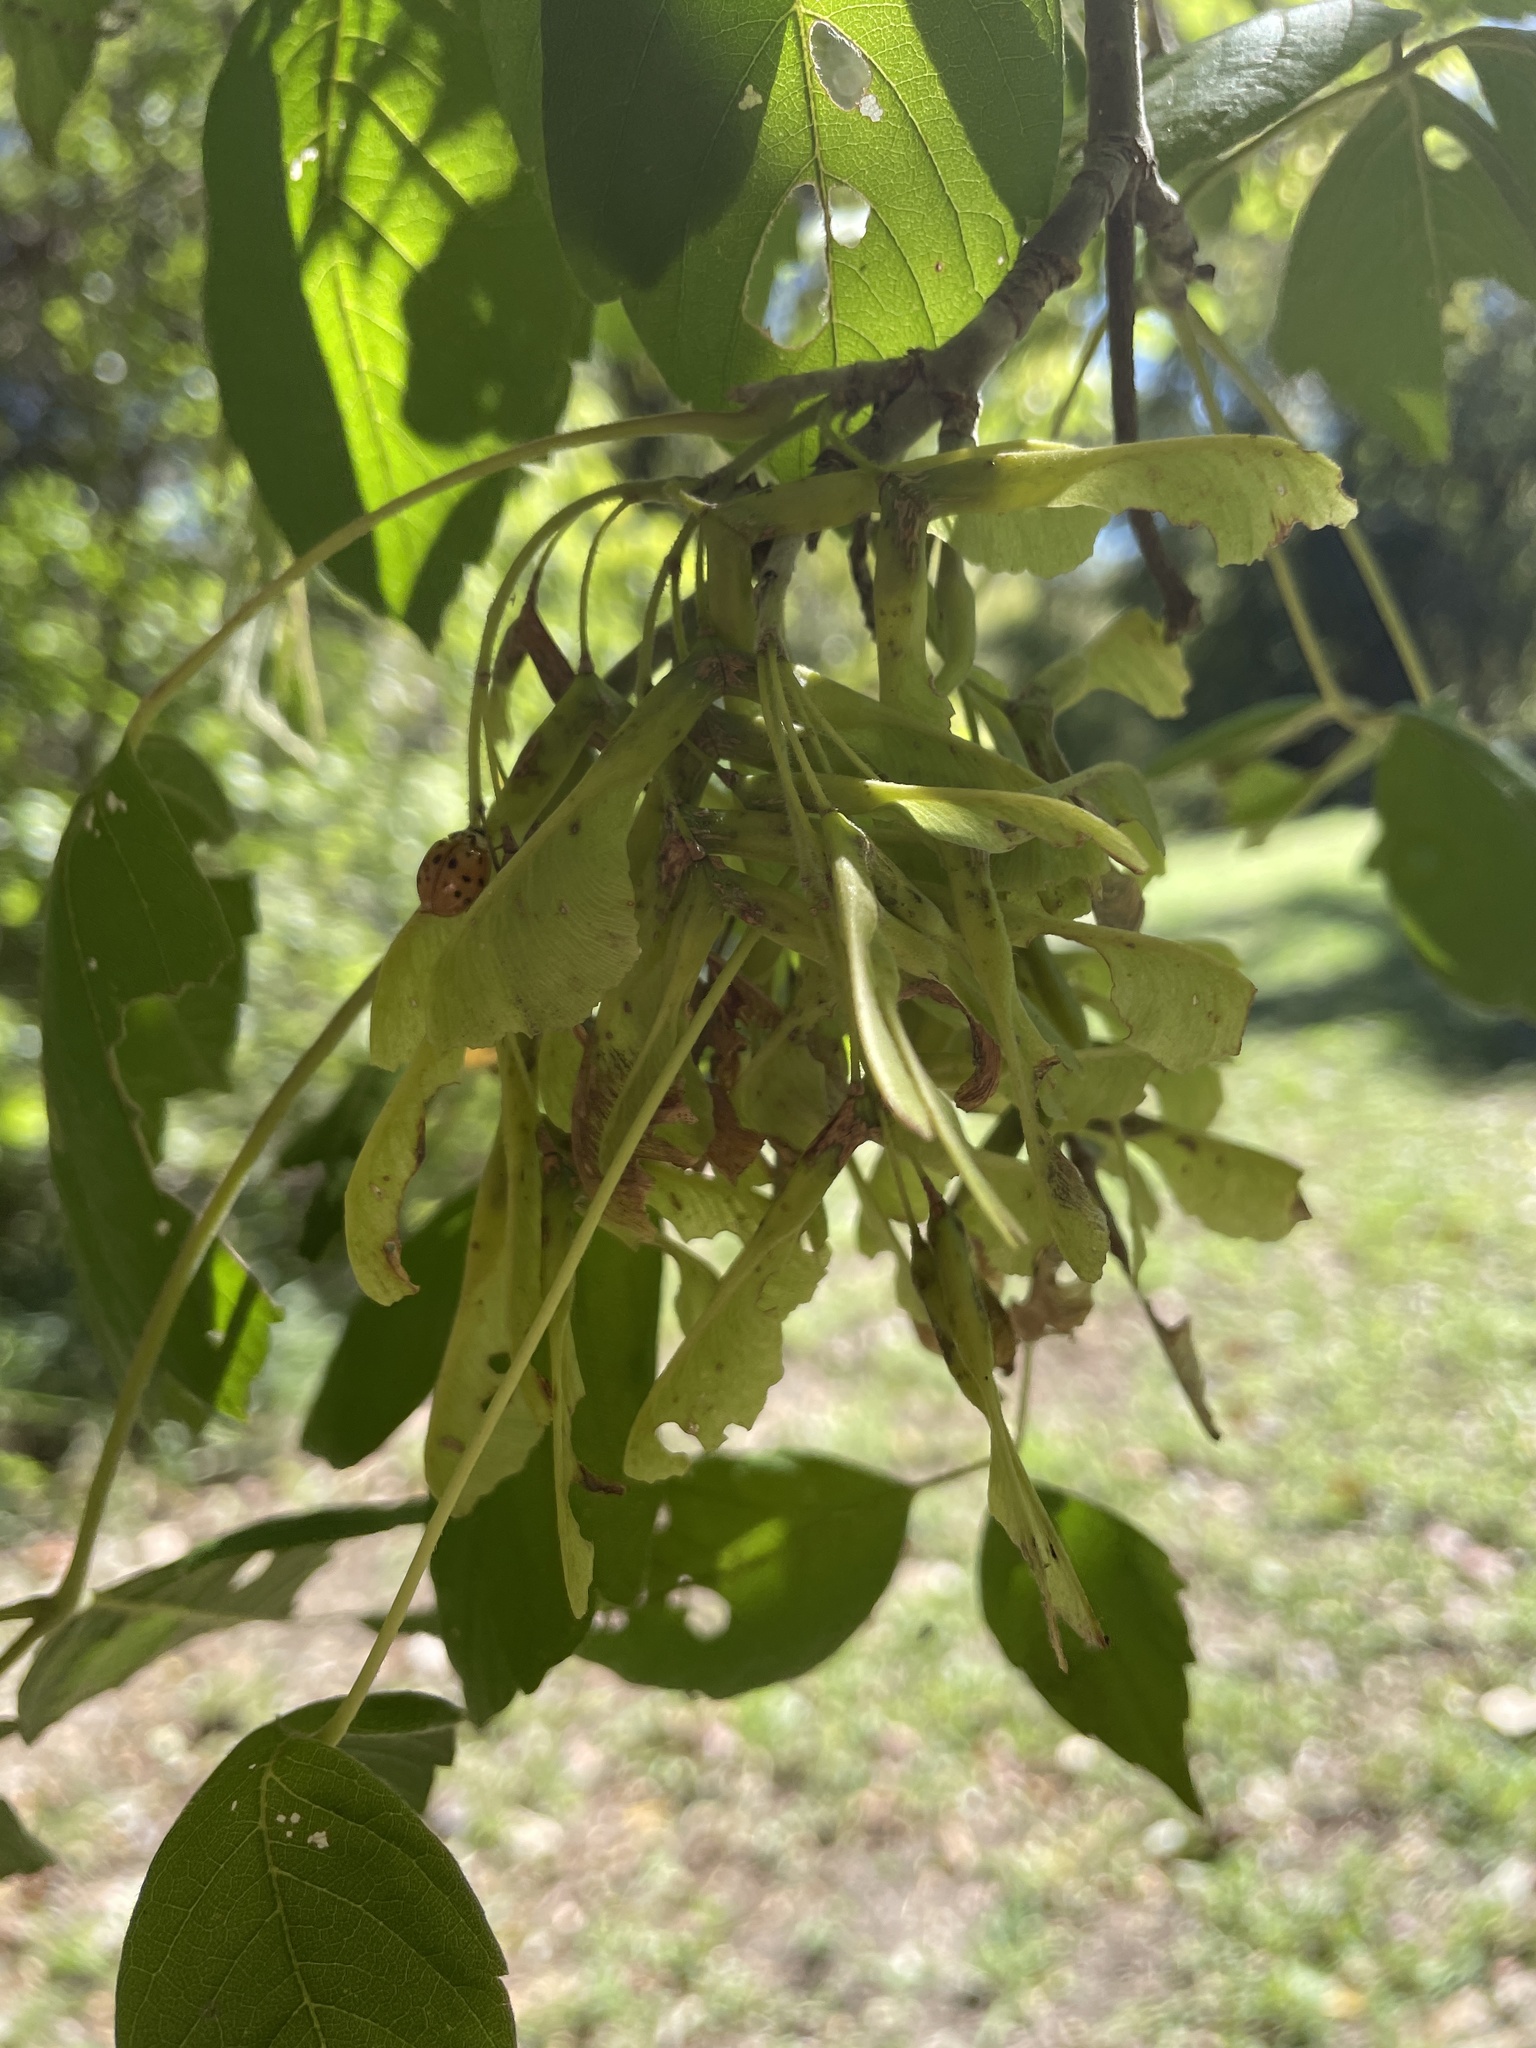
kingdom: Plantae
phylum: Tracheophyta
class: Magnoliopsida
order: Sapindales
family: Sapindaceae
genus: Acer
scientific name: Acer negundo
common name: Ashleaf maple
